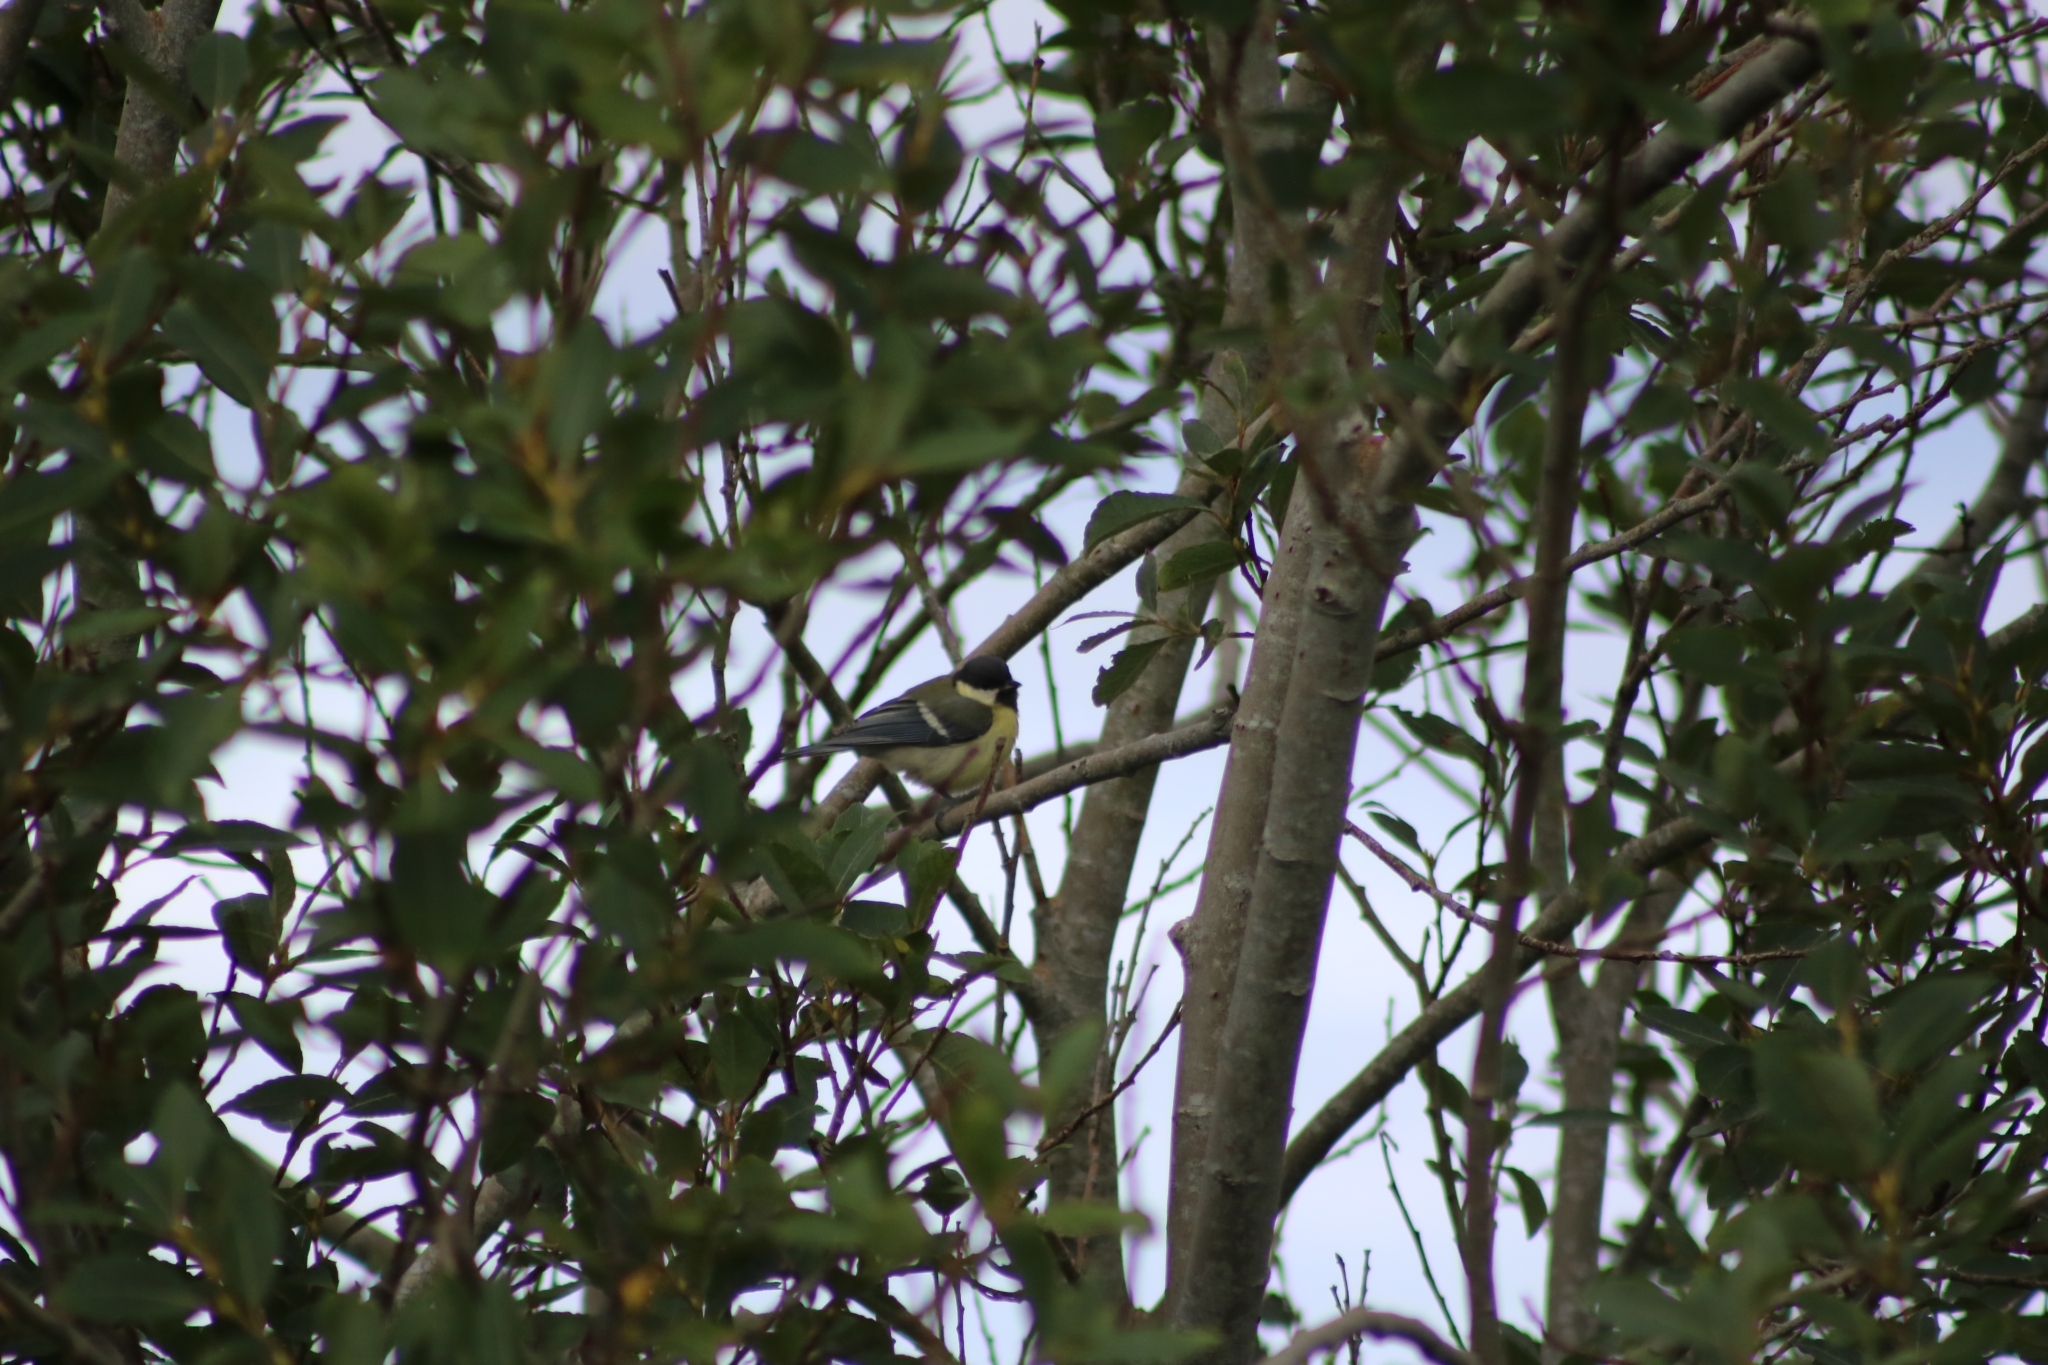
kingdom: Animalia
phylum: Chordata
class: Aves
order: Passeriformes
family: Paridae
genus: Parus
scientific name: Parus major
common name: Great tit
